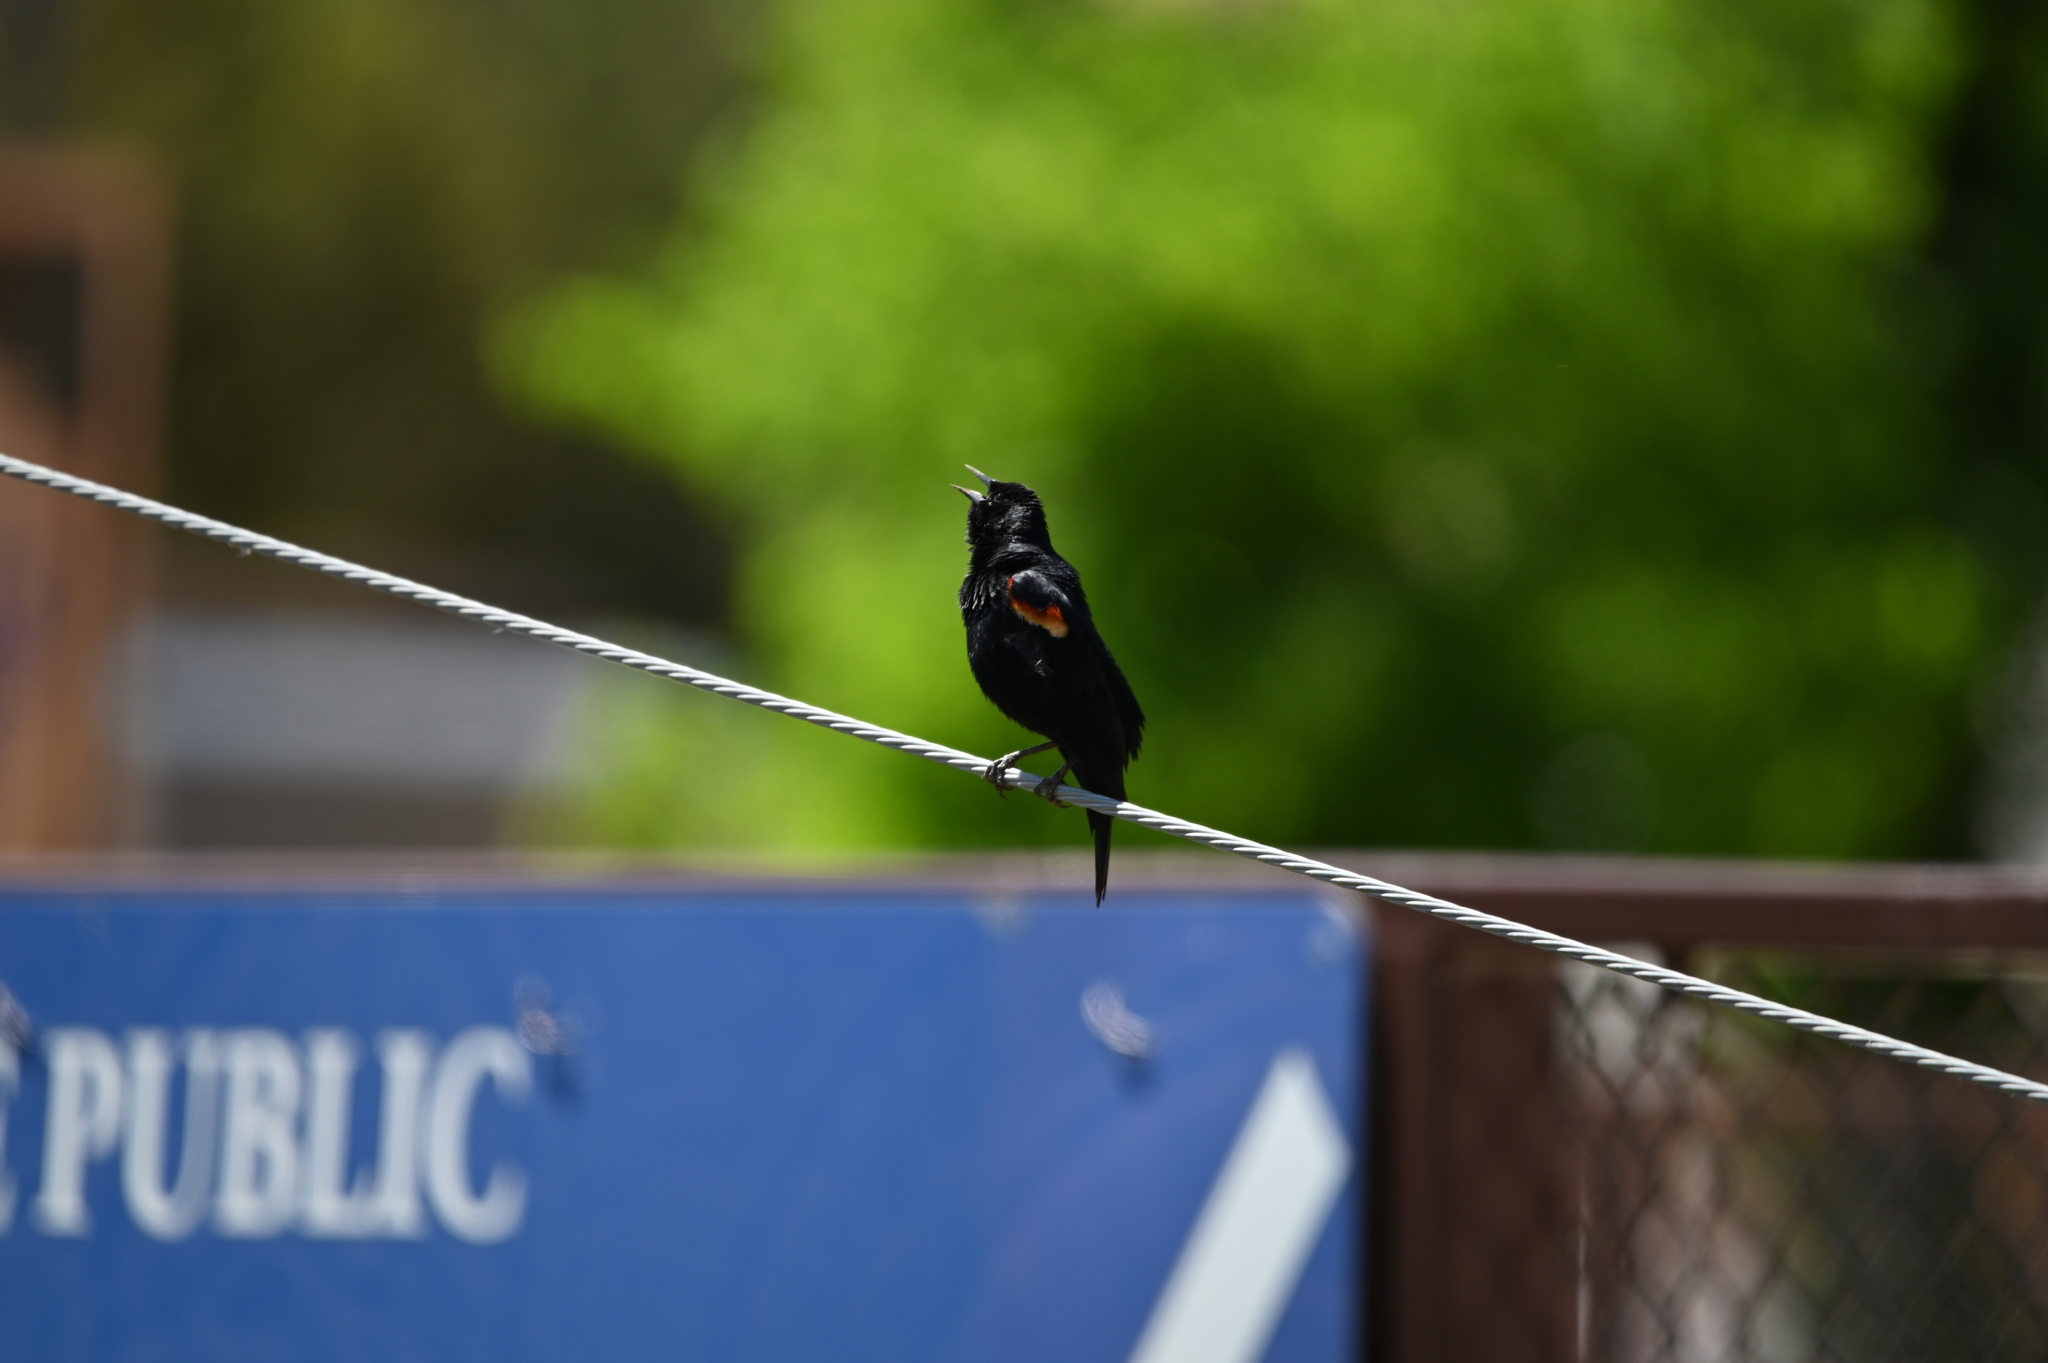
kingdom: Animalia
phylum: Chordata
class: Aves
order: Passeriformes
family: Icteridae
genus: Agelaius
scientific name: Agelaius phoeniceus
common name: Red-winged blackbird
